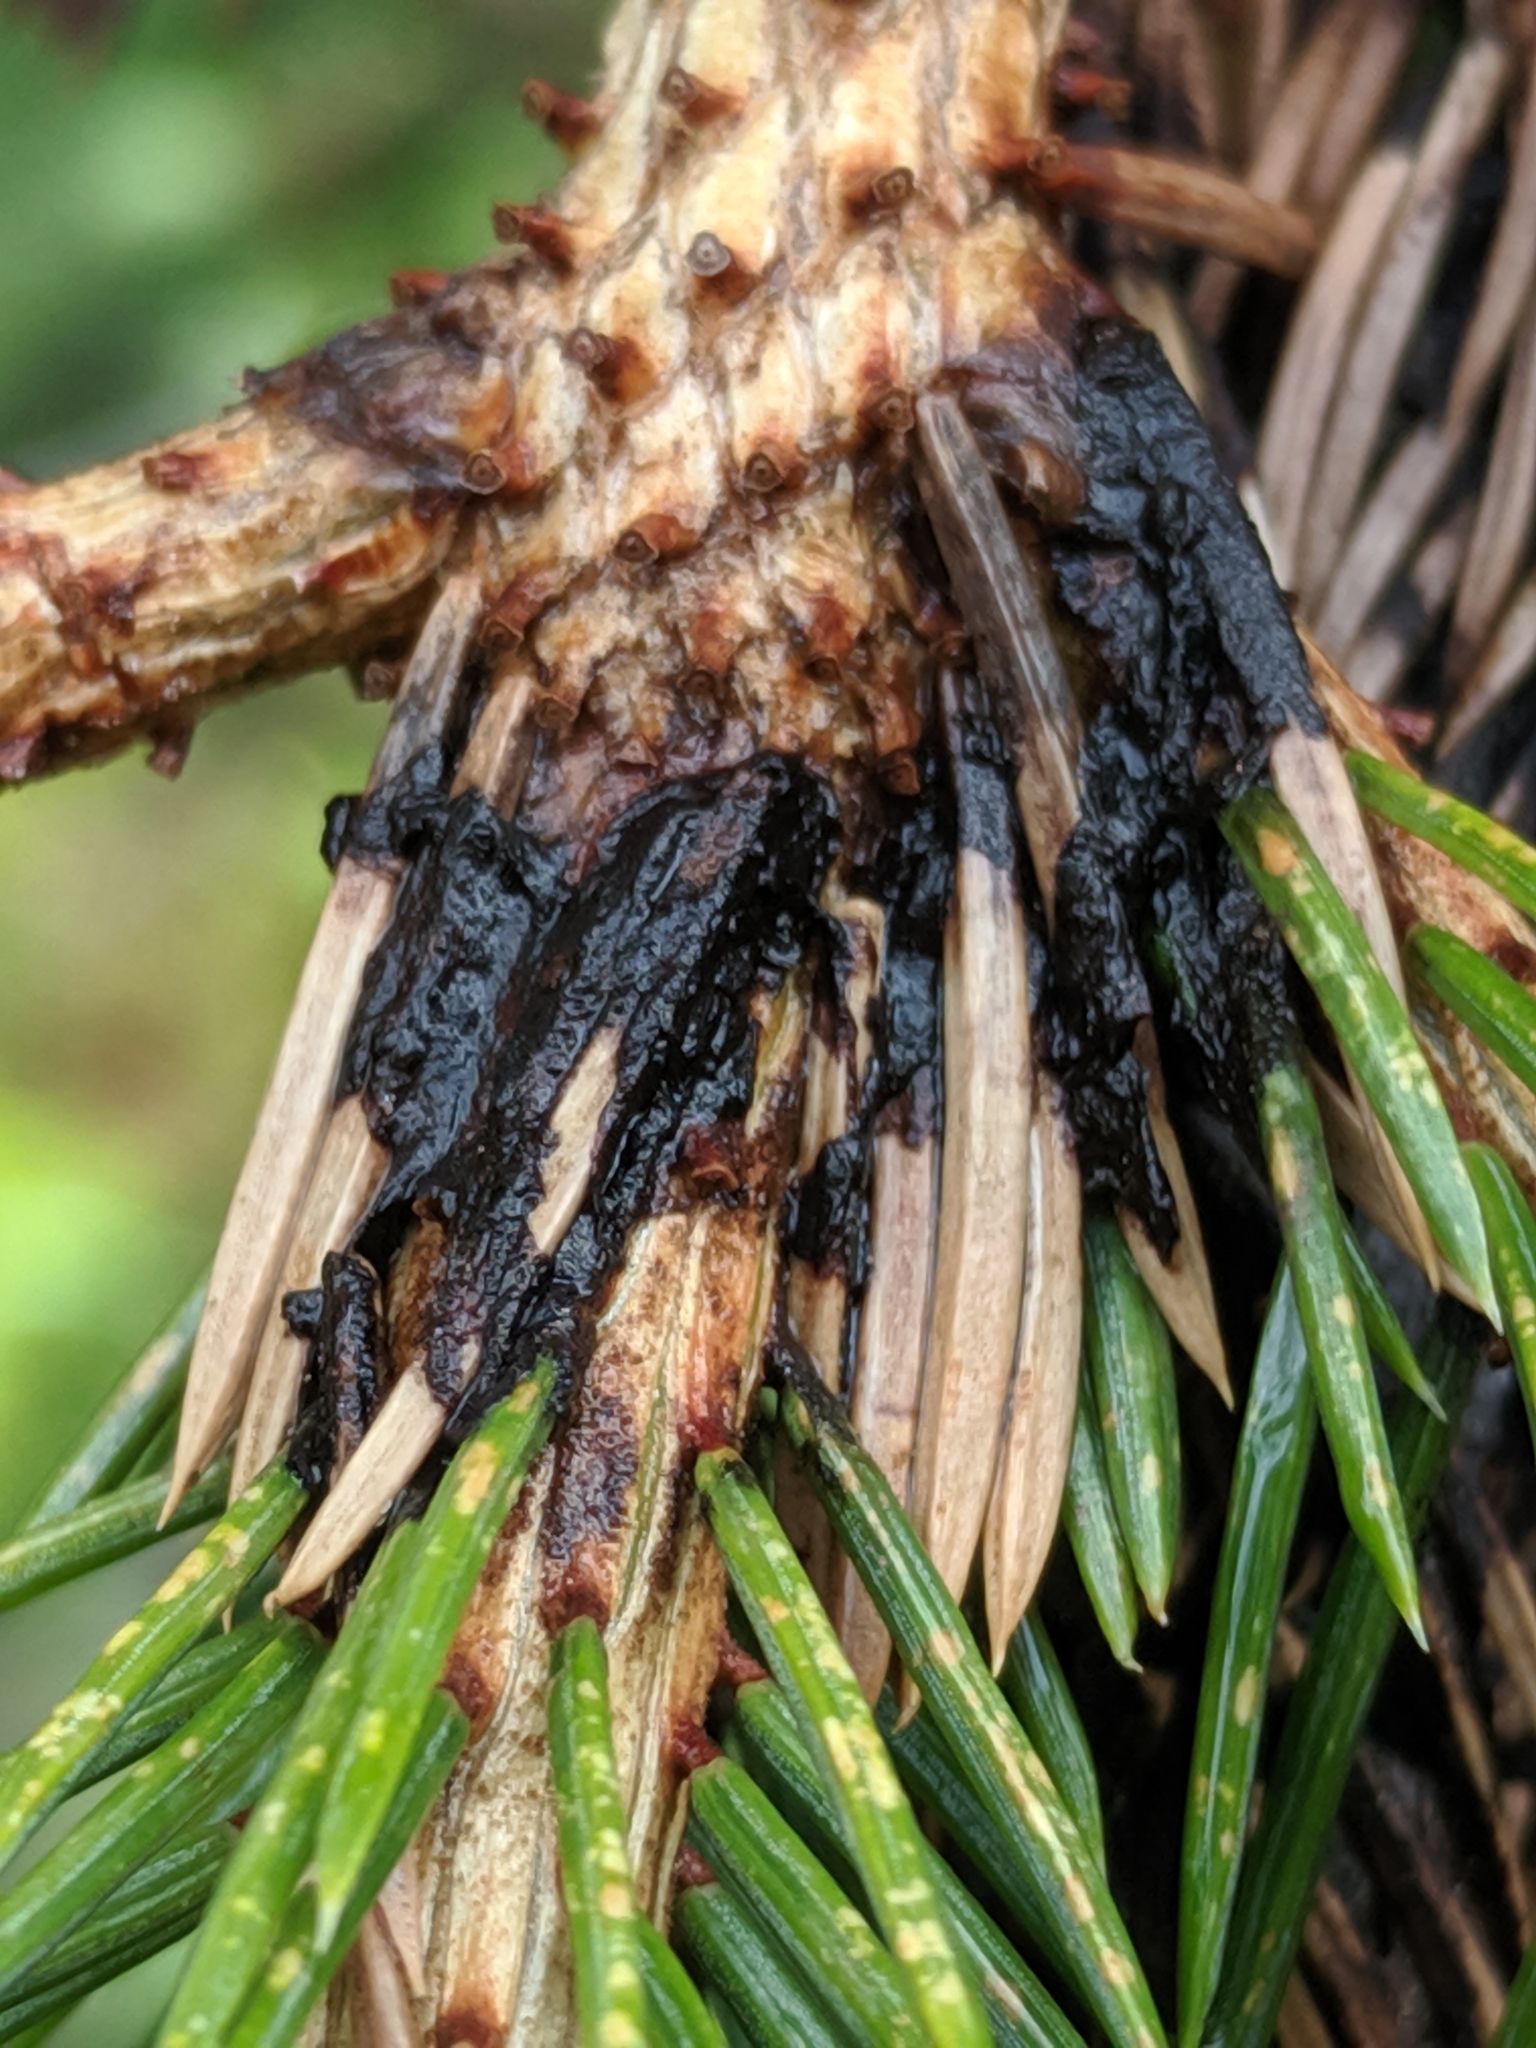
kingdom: Fungi
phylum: Ascomycota
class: Dothideomycetes
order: Pleosporales
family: Melanommataceae
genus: Herpotrichia
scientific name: Herpotrichia pinetorum
